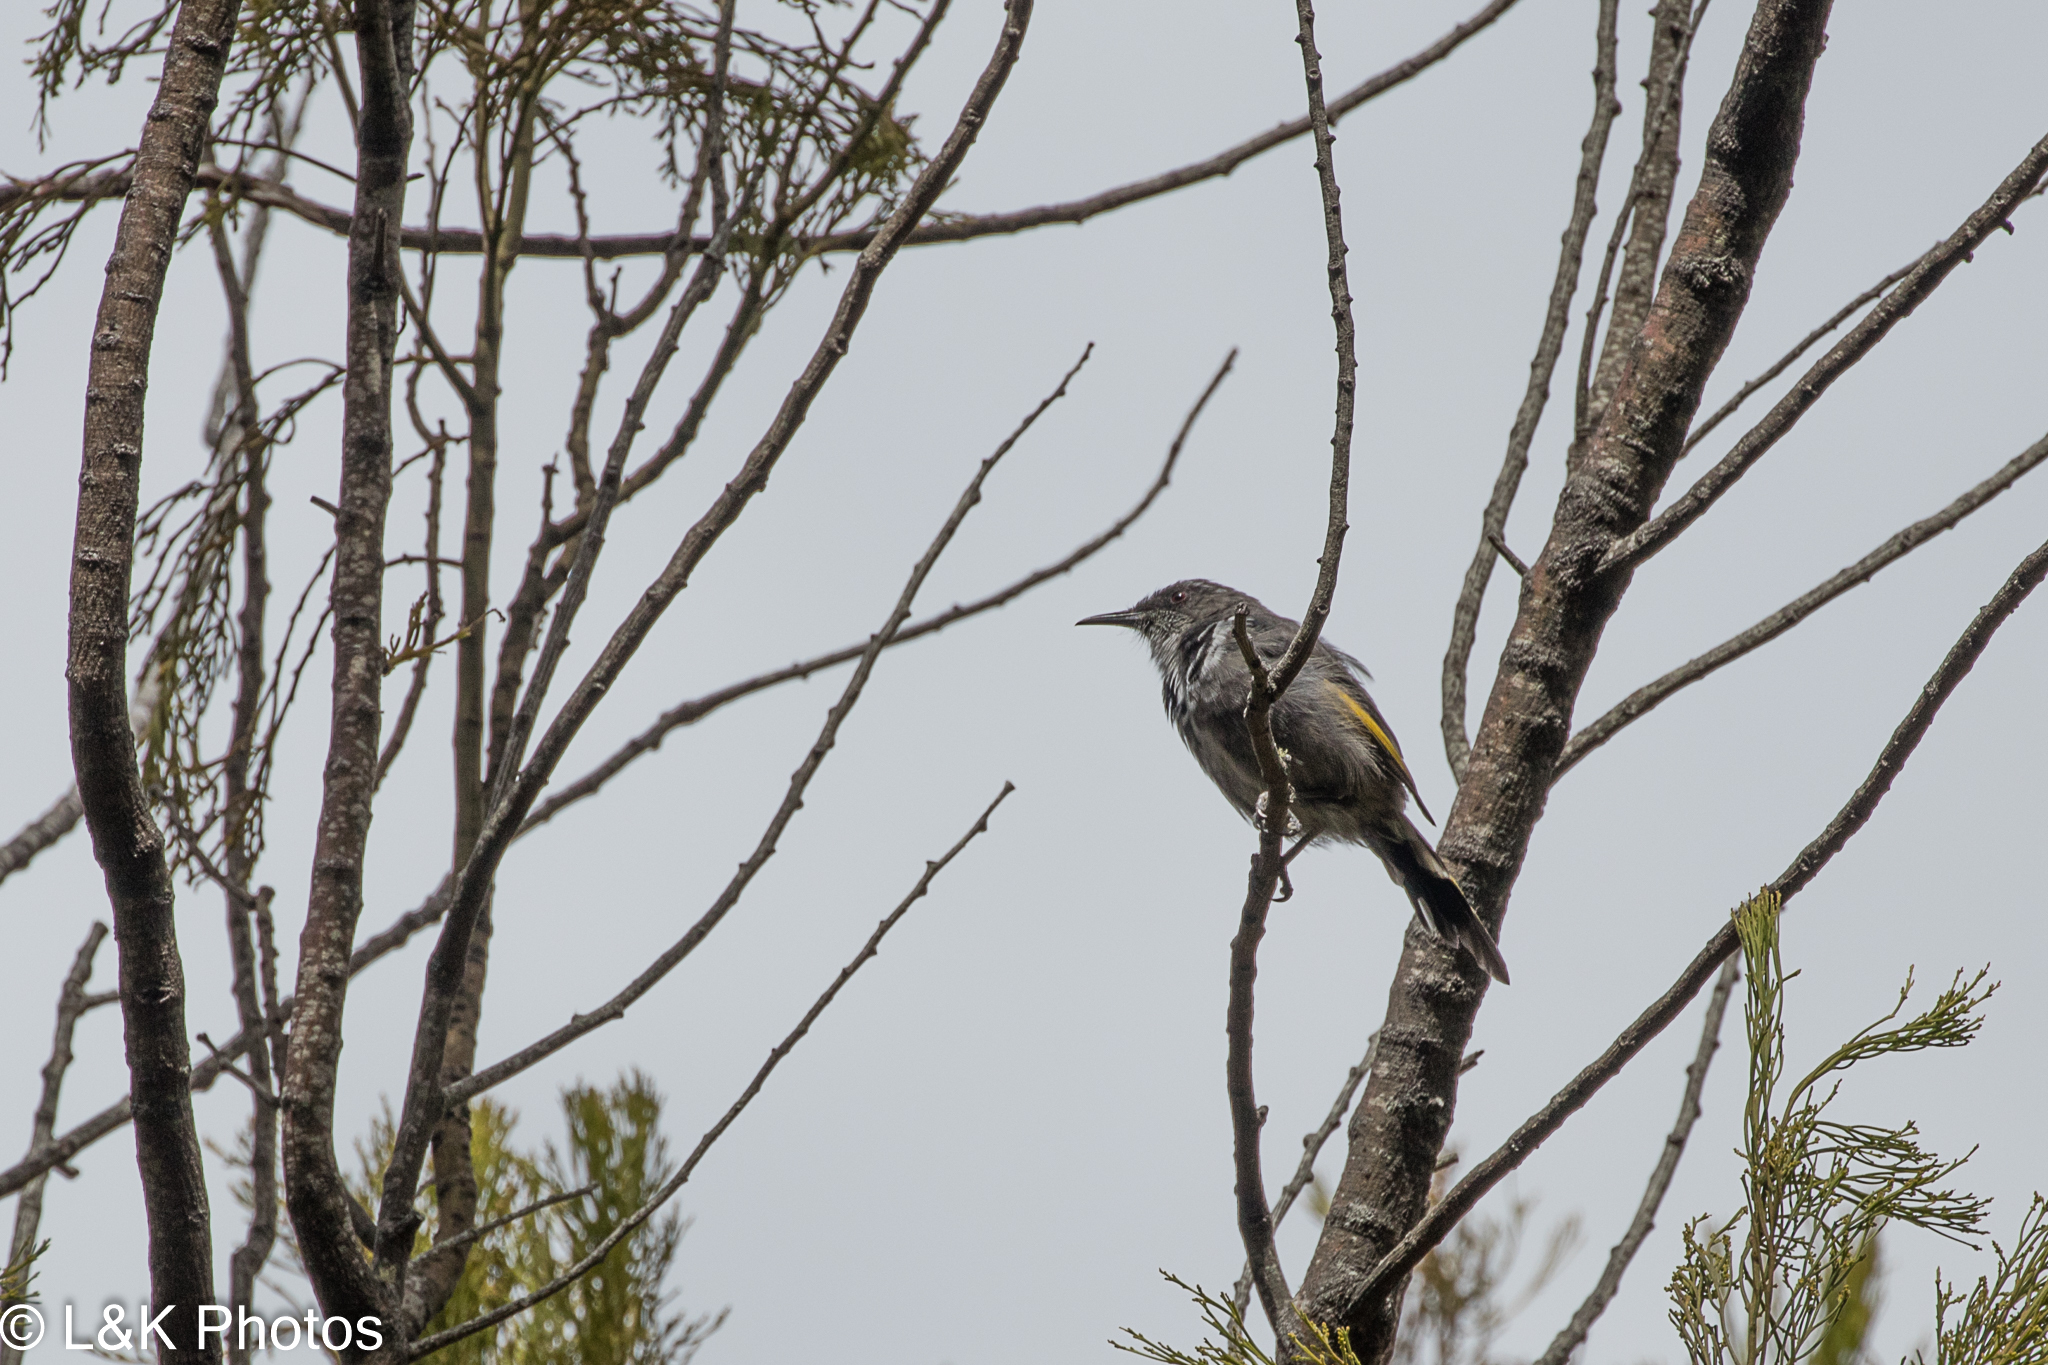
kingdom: Animalia
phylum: Chordata
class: Aves
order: Passeriformes
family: Meliphagidae
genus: Phylidonyris
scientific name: Phylidonyris pyrrhopterus
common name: Crescent honeyeater
